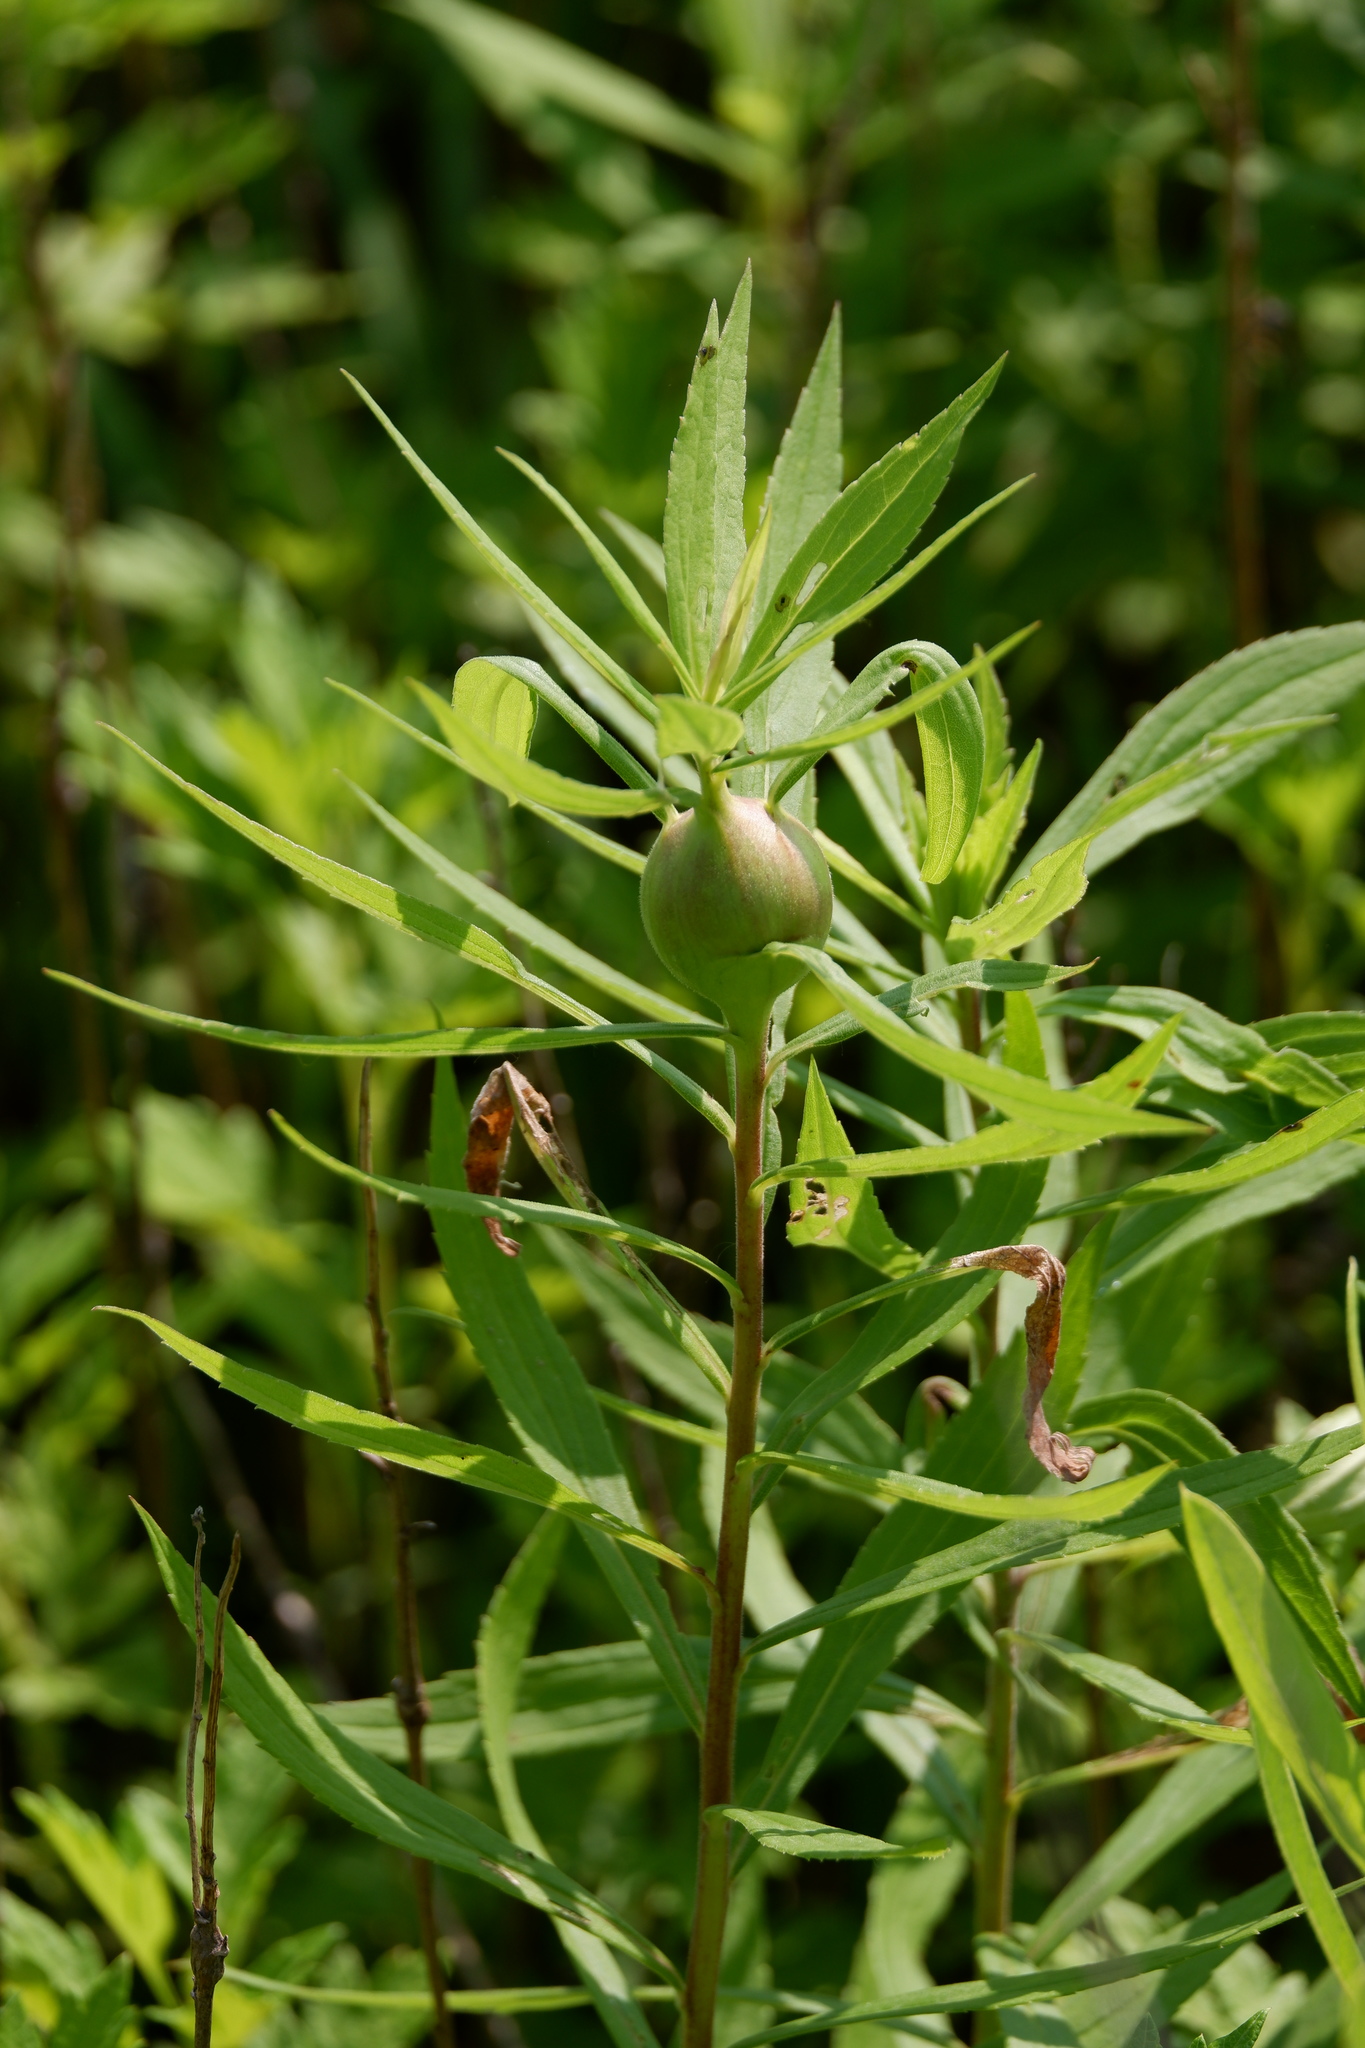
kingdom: Animalia
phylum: Arthropoda
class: Insecta
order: Diptera
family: Tephritidae
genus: Eurosta
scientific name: Eurosta solidaginis
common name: Goldenrod gall fly
